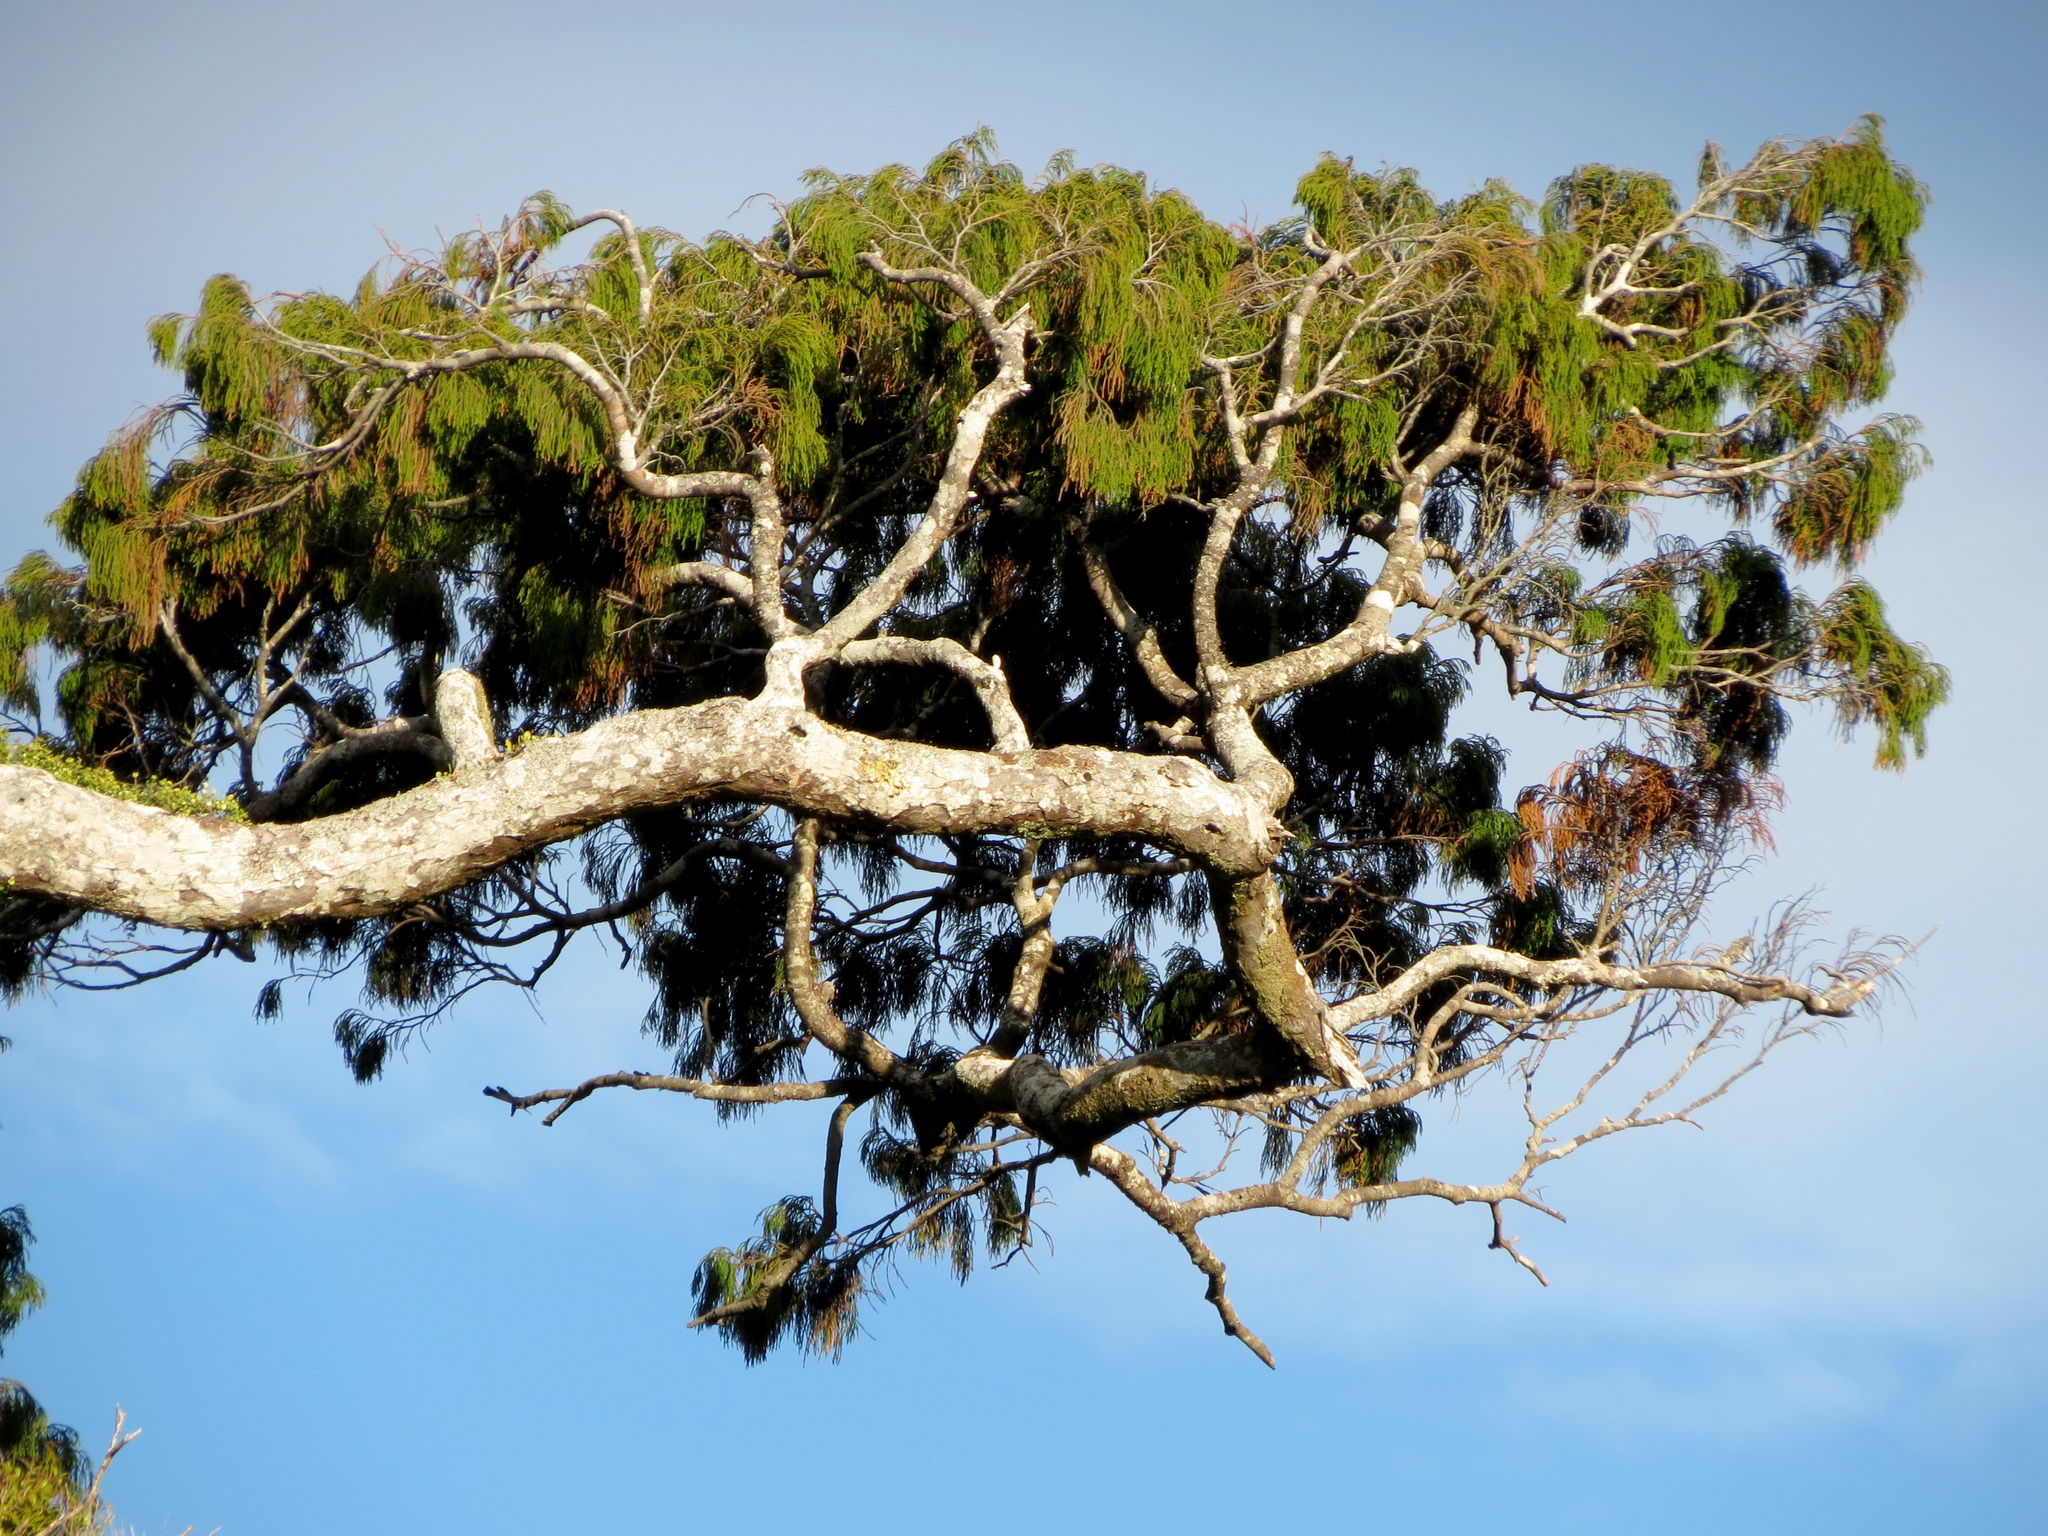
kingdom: Plantae
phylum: Tracheophyta
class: Pinopsida
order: Pinales
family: Podocarpaceae
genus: Dacrydium
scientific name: Dacrydium cupressinum
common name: Red pine
